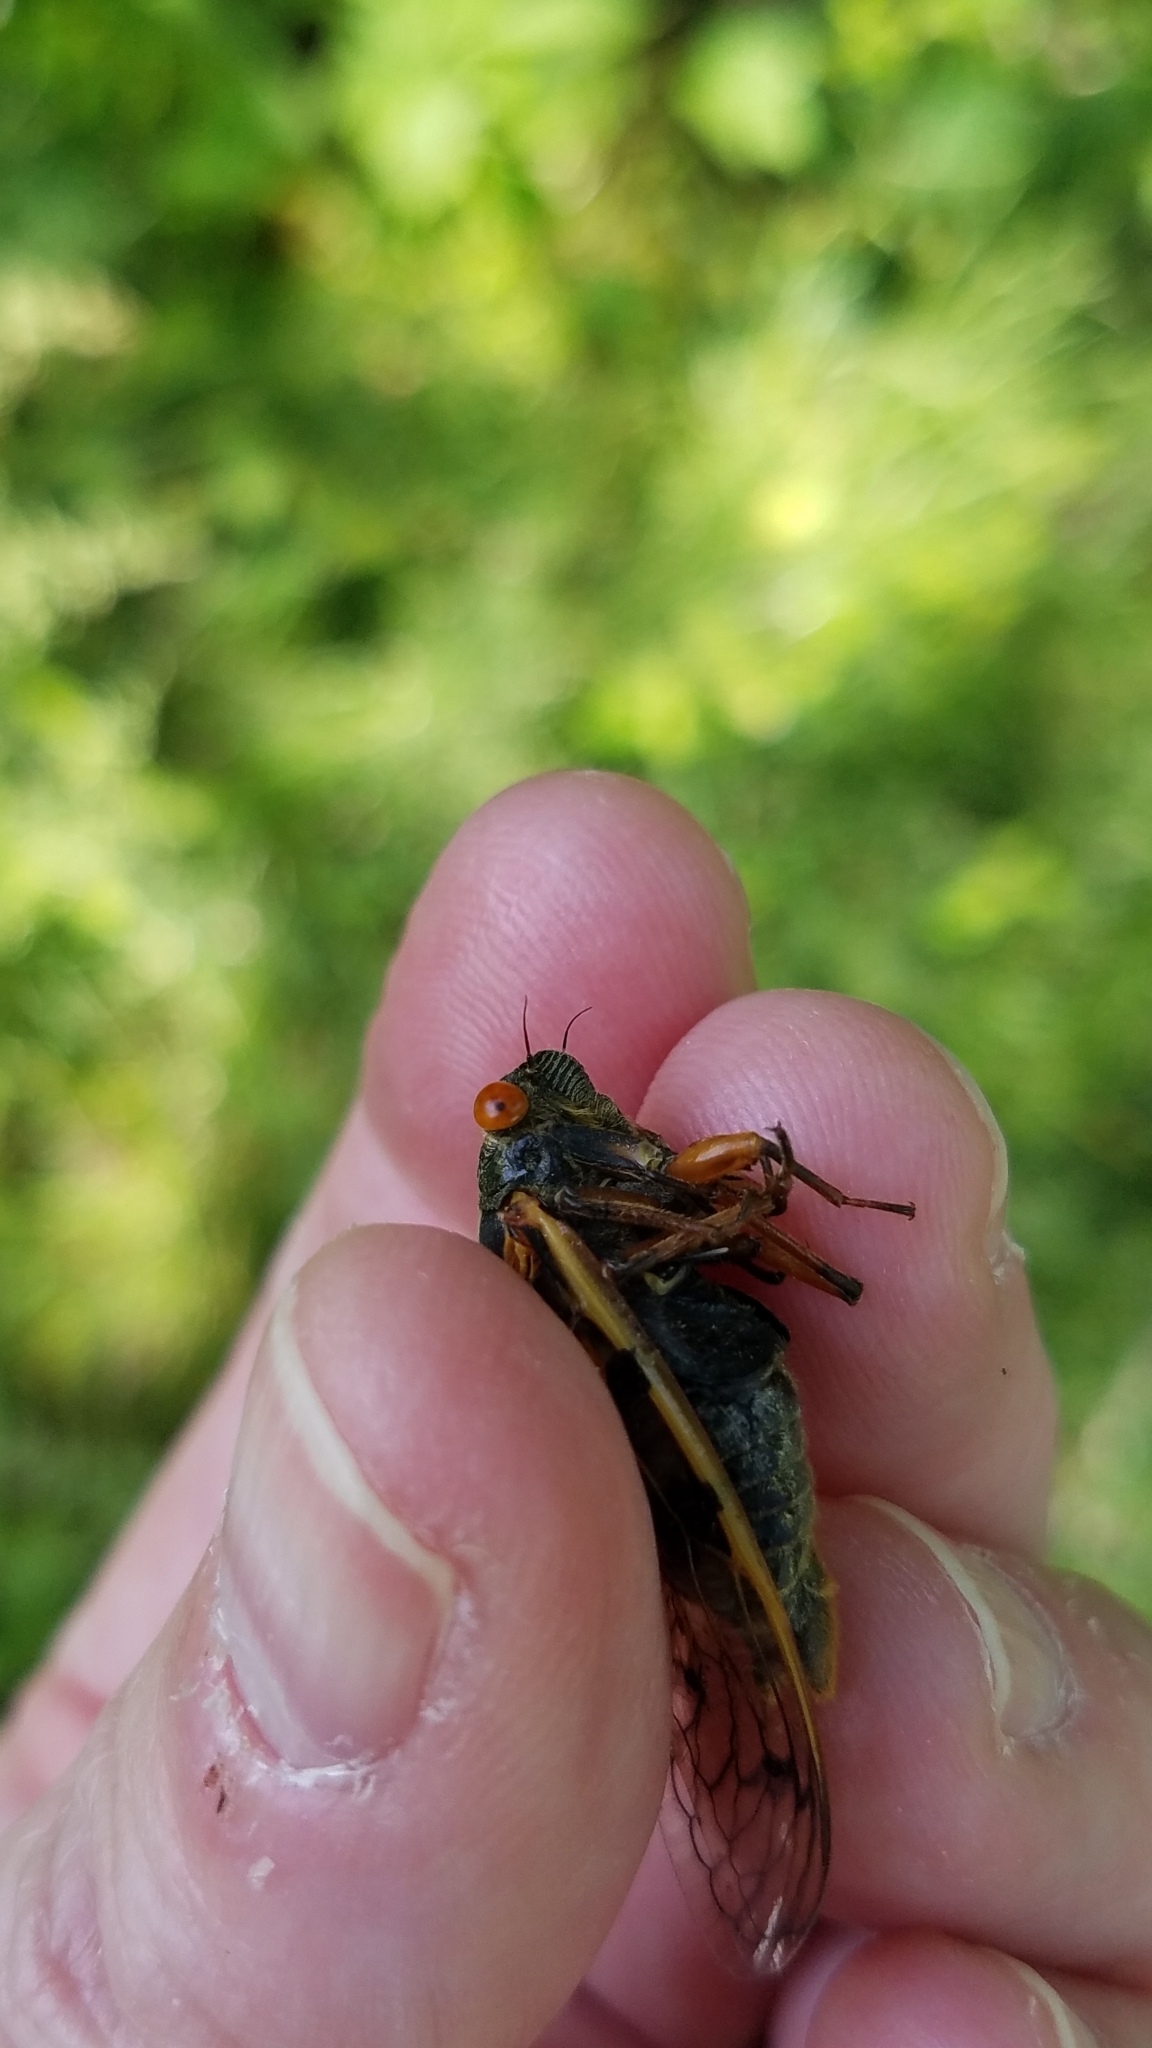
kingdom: Animalia
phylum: Arthropoda
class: Insecta
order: Hemiptera
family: Cicadidae
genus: Magicicada
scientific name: Magicicada cassini
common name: Cassin's 17-year cicada
